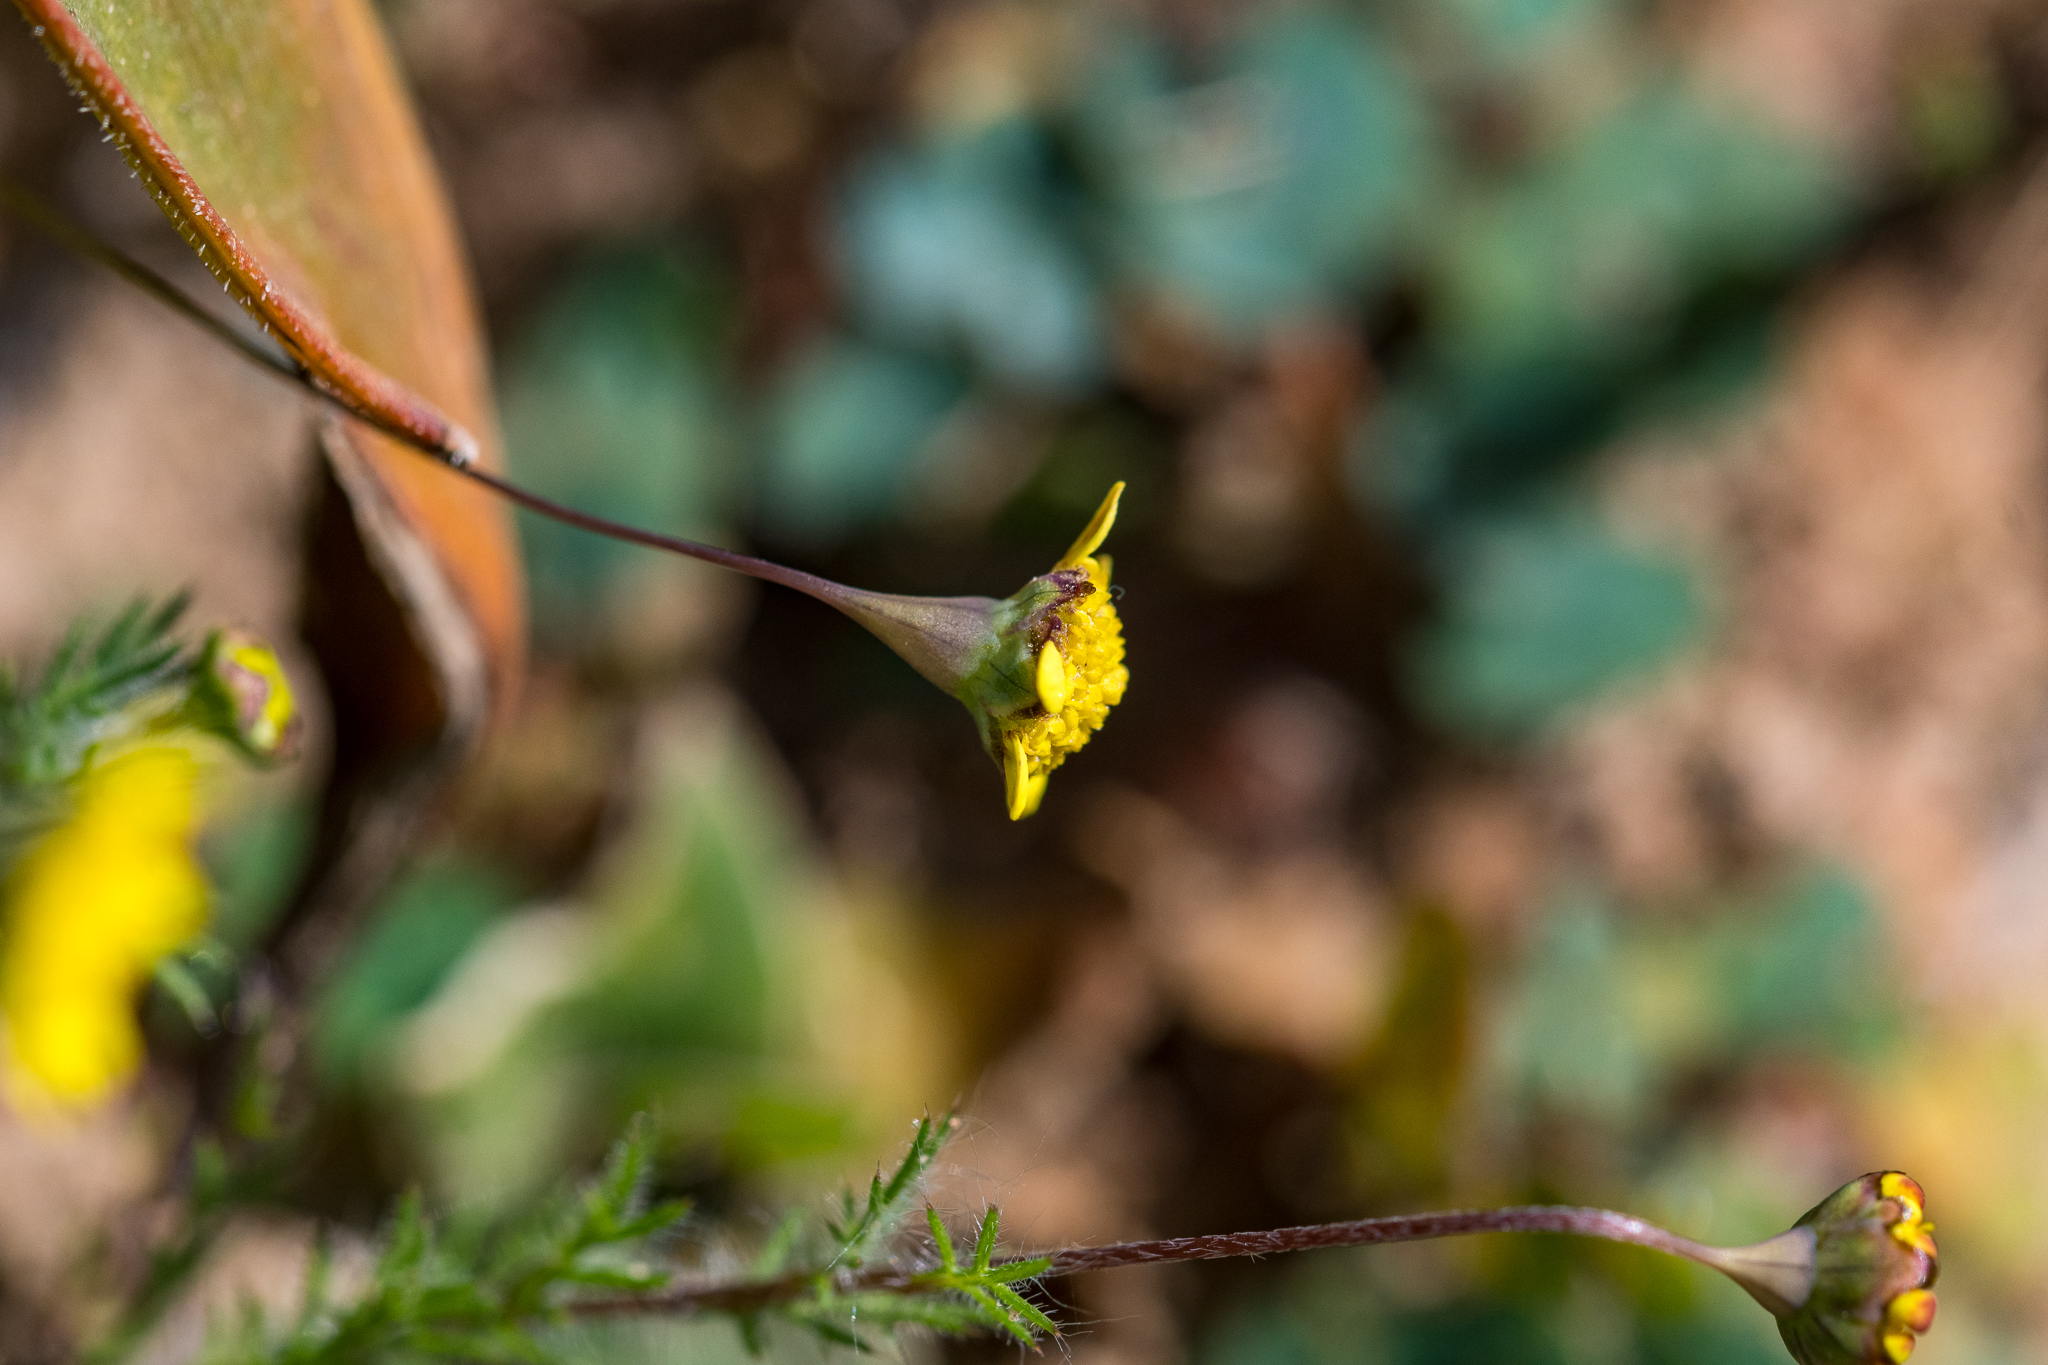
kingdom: Plantae
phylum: Tracheophyta
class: Magnoliopsida
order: Asterales
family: Asteraceae
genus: Cotula
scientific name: Cotula pruinosa
